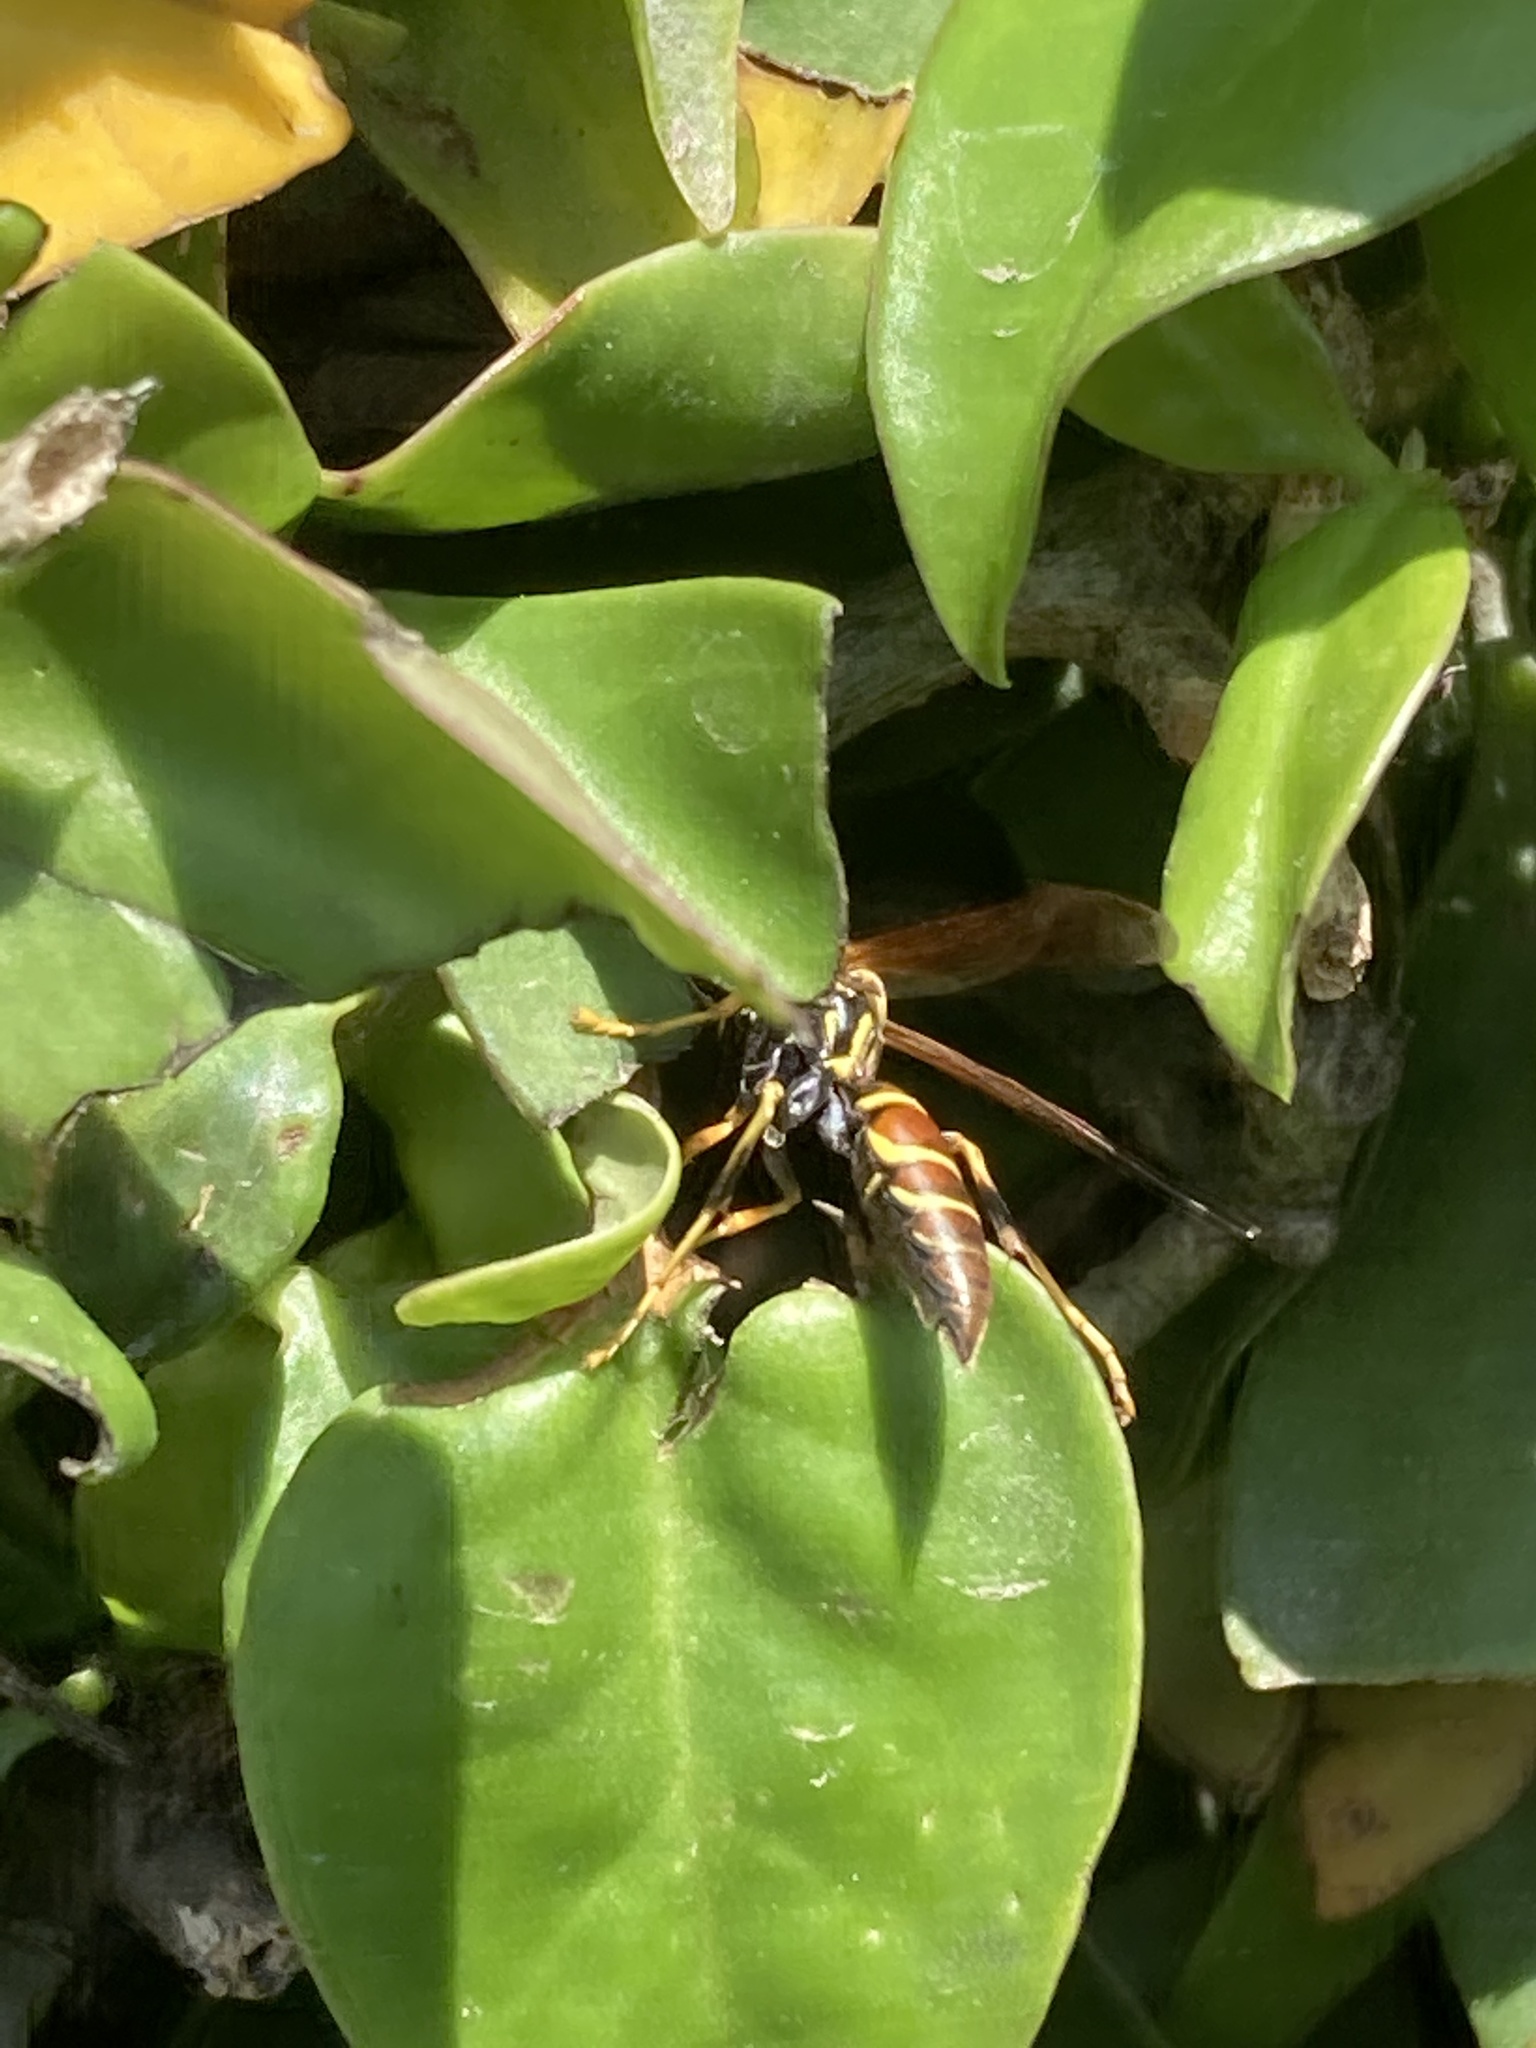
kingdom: Animalia
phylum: Arthropoda
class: Insecta
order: Hymenoptera
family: Eumenidae
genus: Polistes
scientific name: Polistes instabilis
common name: Unstable paper wasp
